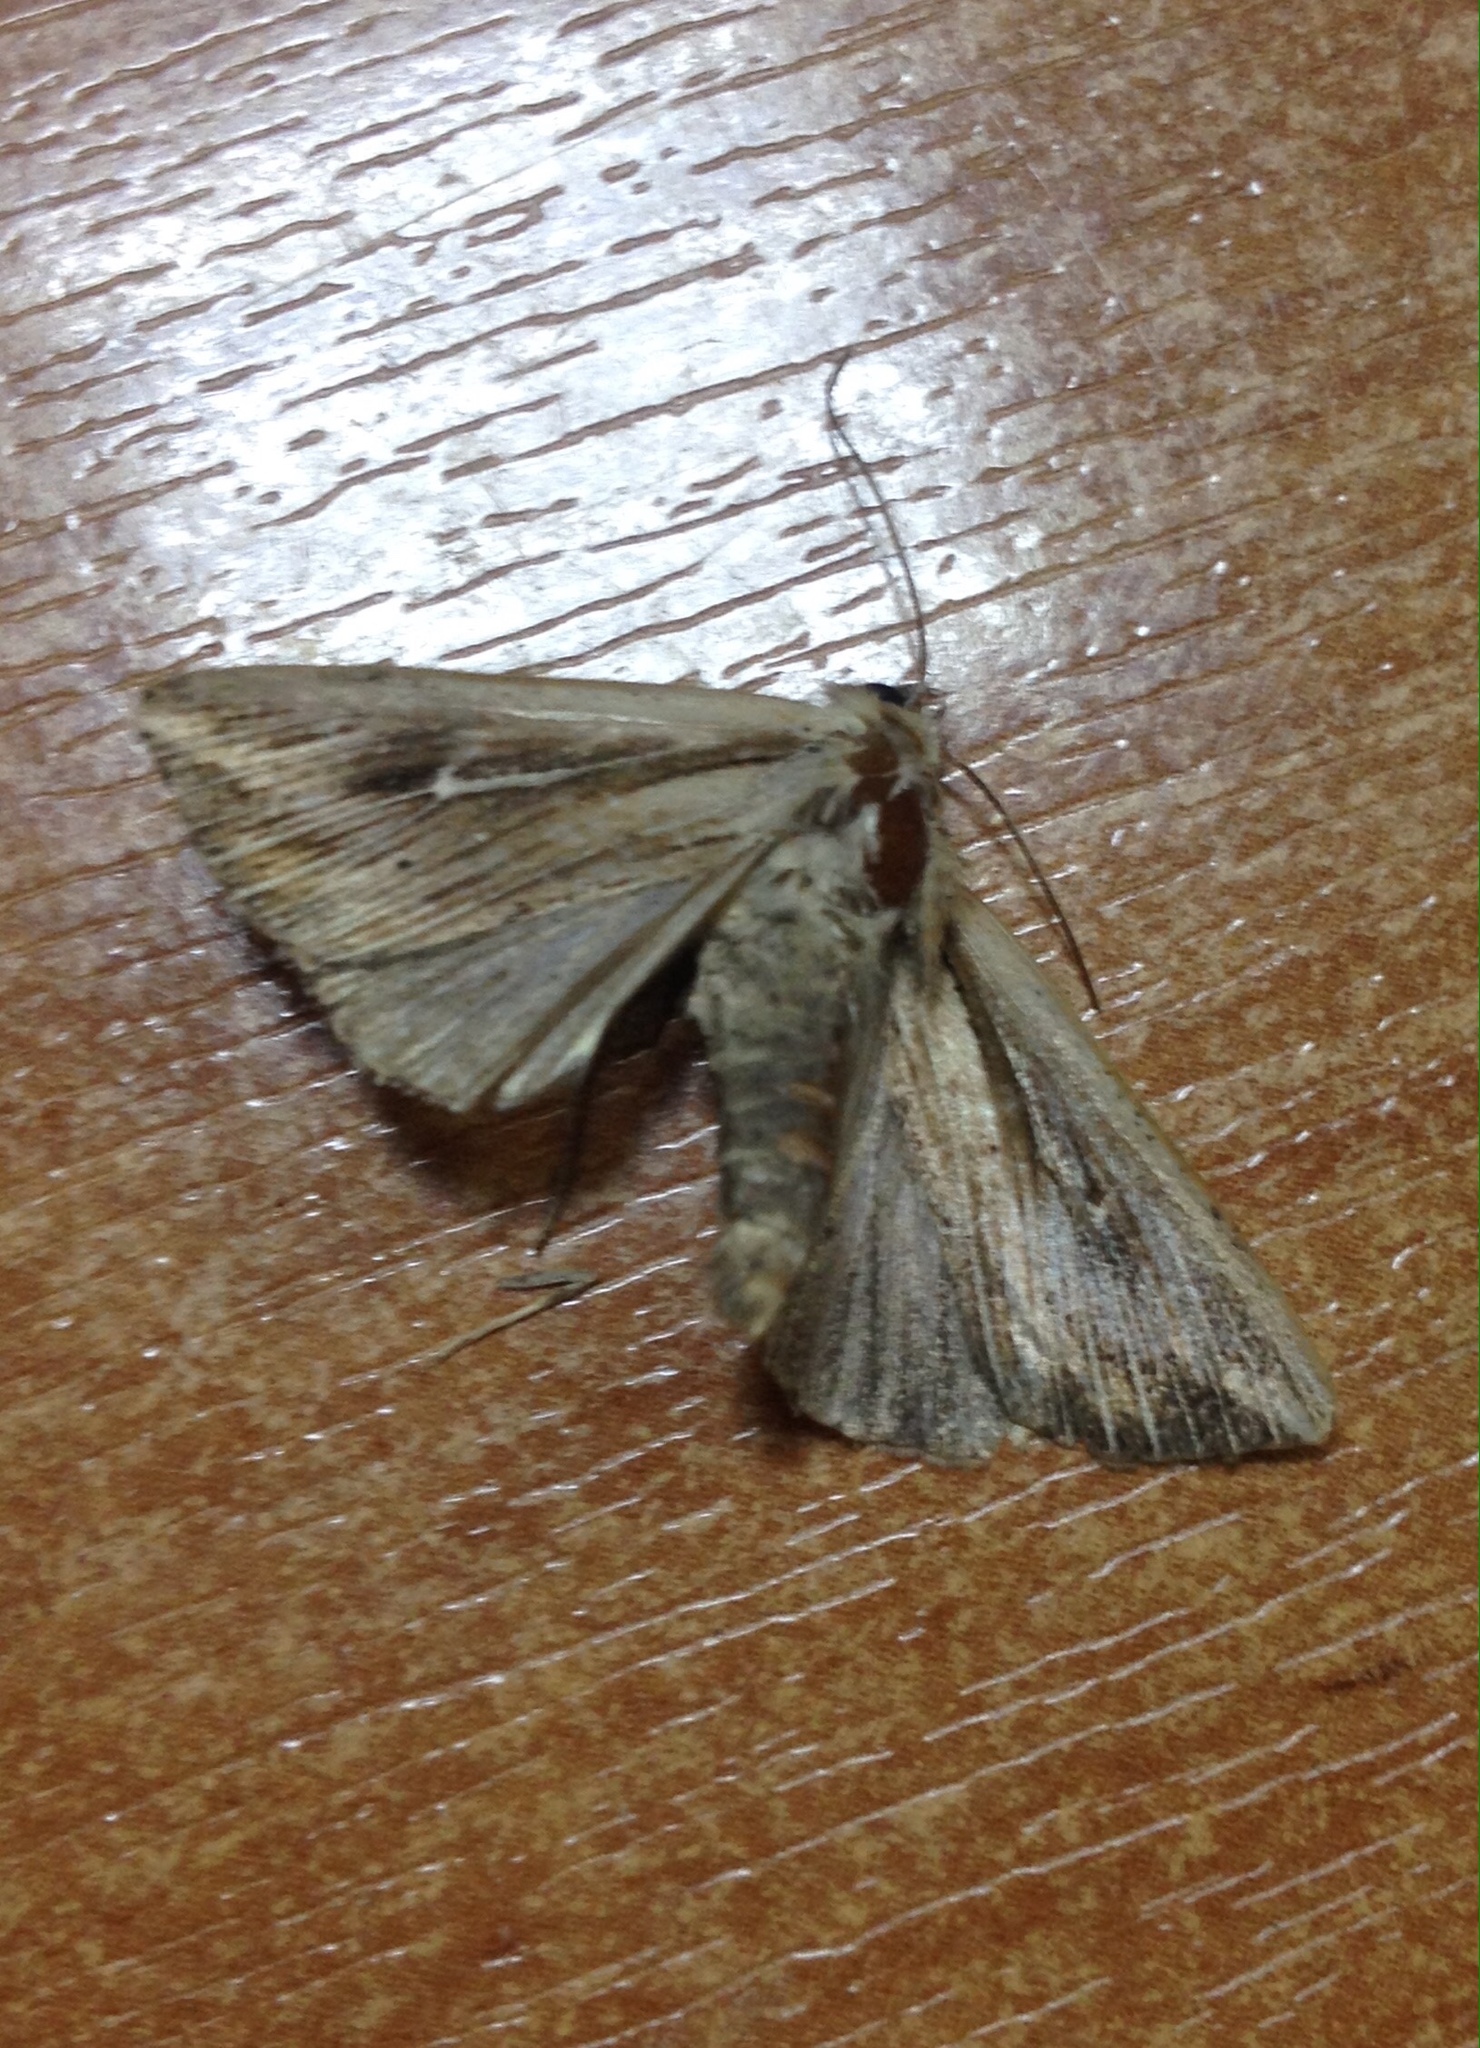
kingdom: Animalia
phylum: Arthropoda
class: Insecta
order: Lepidoptera
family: Noctuidae
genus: Mythimna
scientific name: Mythimna l-album
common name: L-album wainscot
